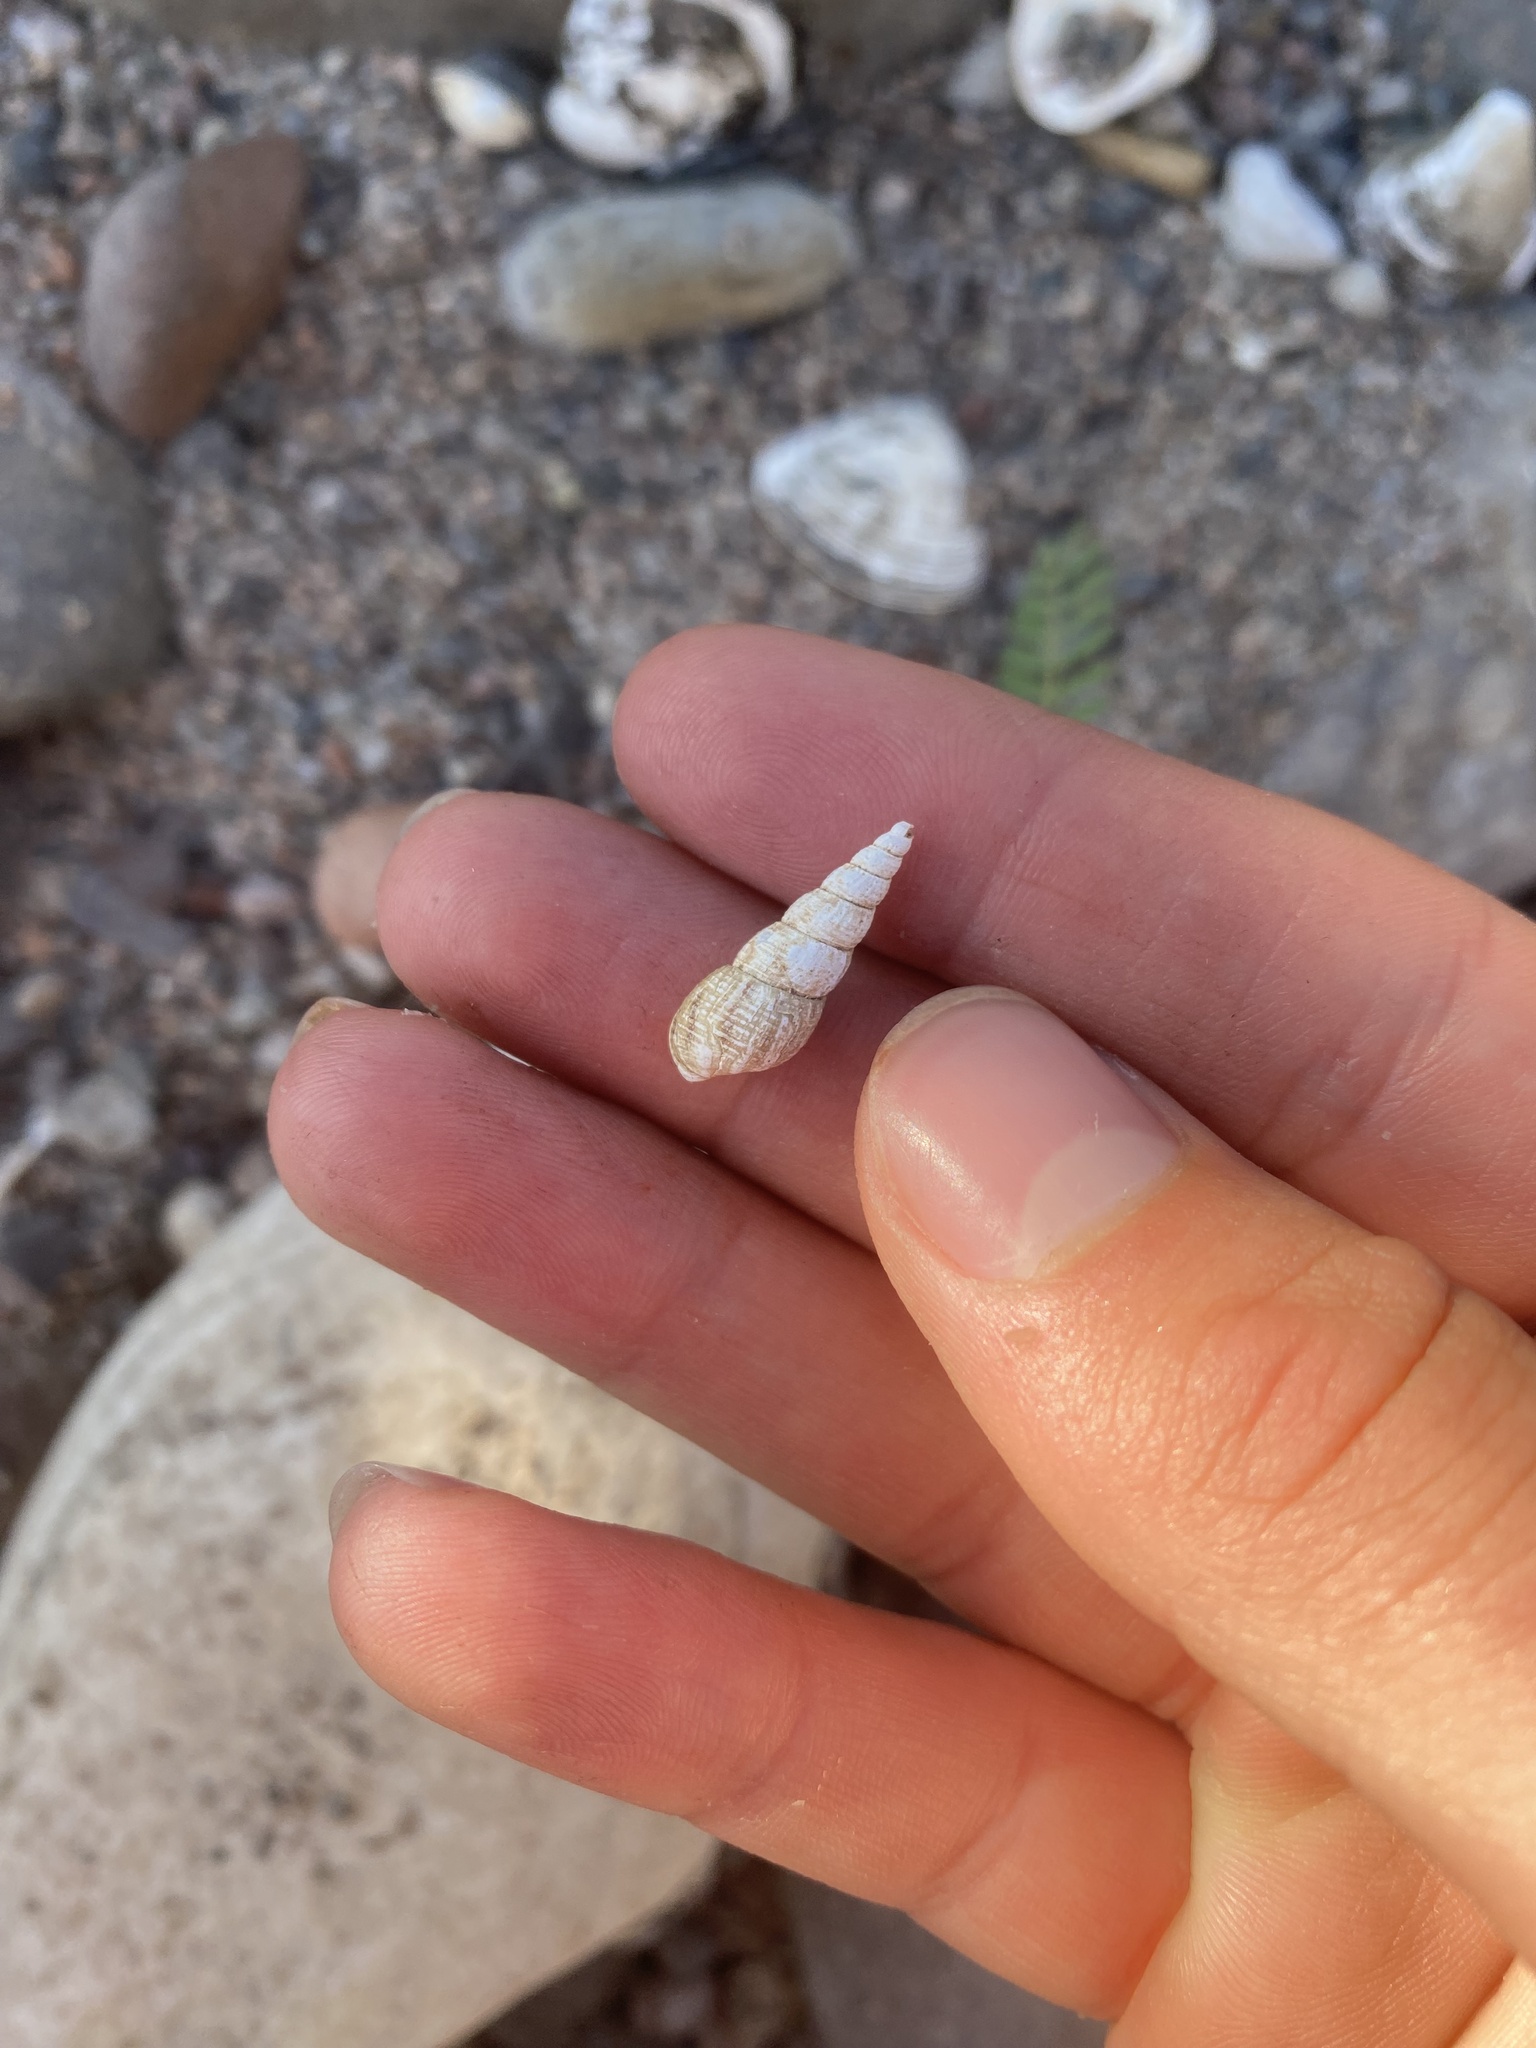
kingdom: Animalia
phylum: Mollusca
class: Gastropoda
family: Thiaridae
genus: Melanoides
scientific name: Melanoides tuberculata
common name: Red-rim melania
